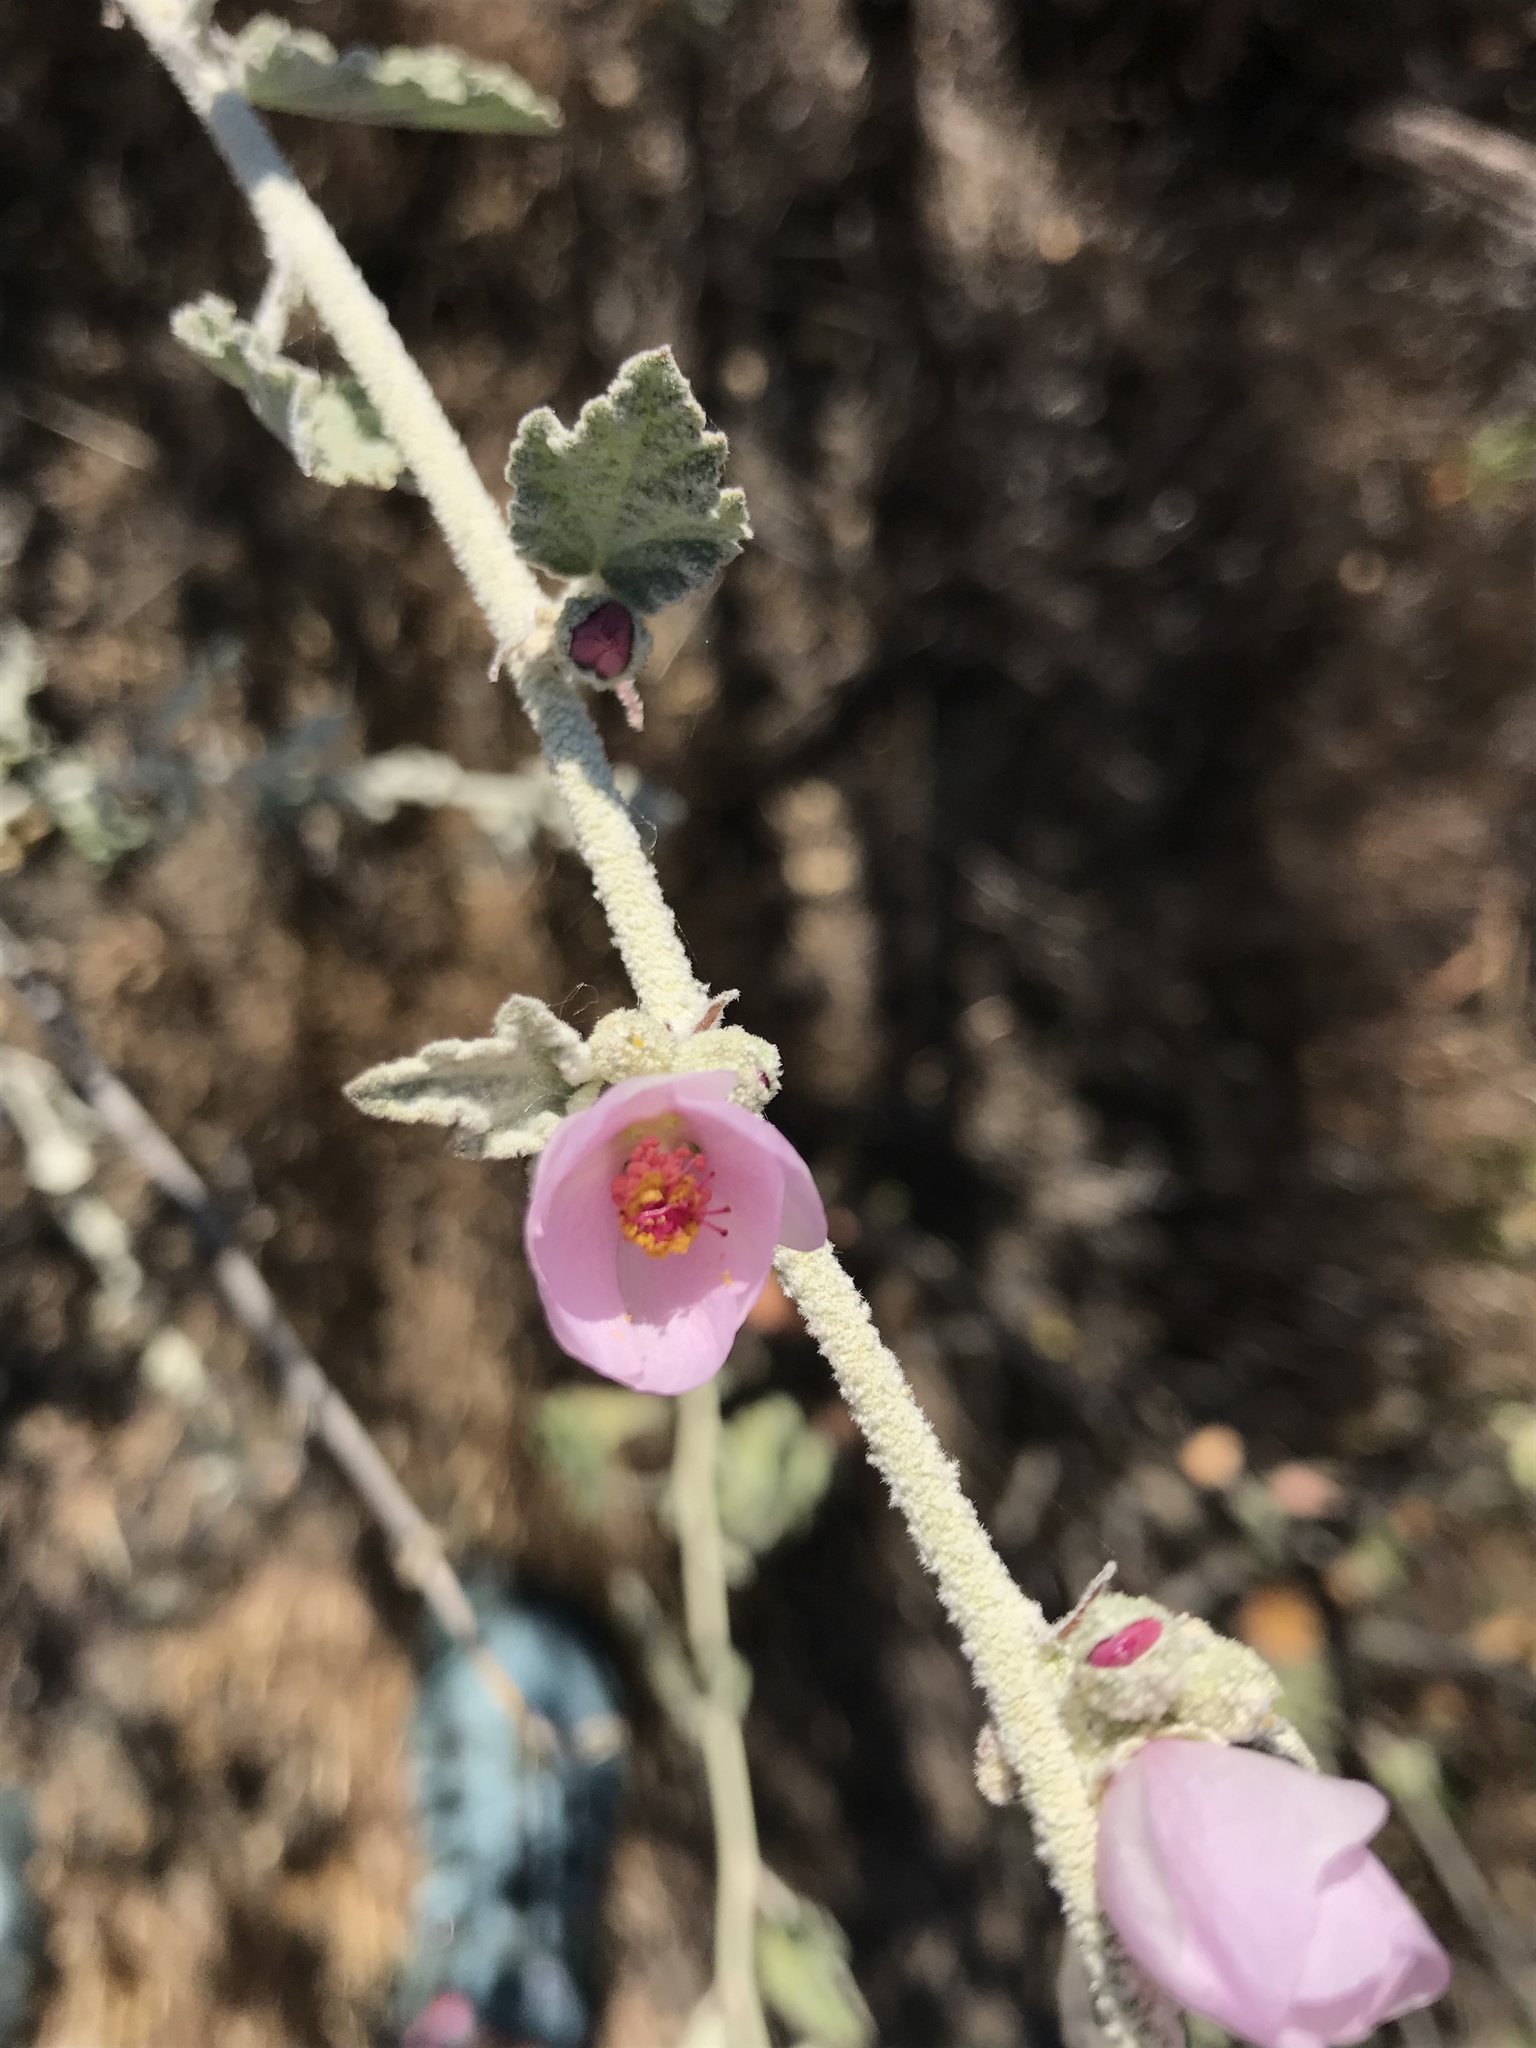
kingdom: Plantae
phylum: Tracheophyta
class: Magnoliopsida
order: Malvales
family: Malvaceae
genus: Malacothamnus
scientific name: Malacothamnus fasciculatus
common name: Sant cruz island bush-mallow
